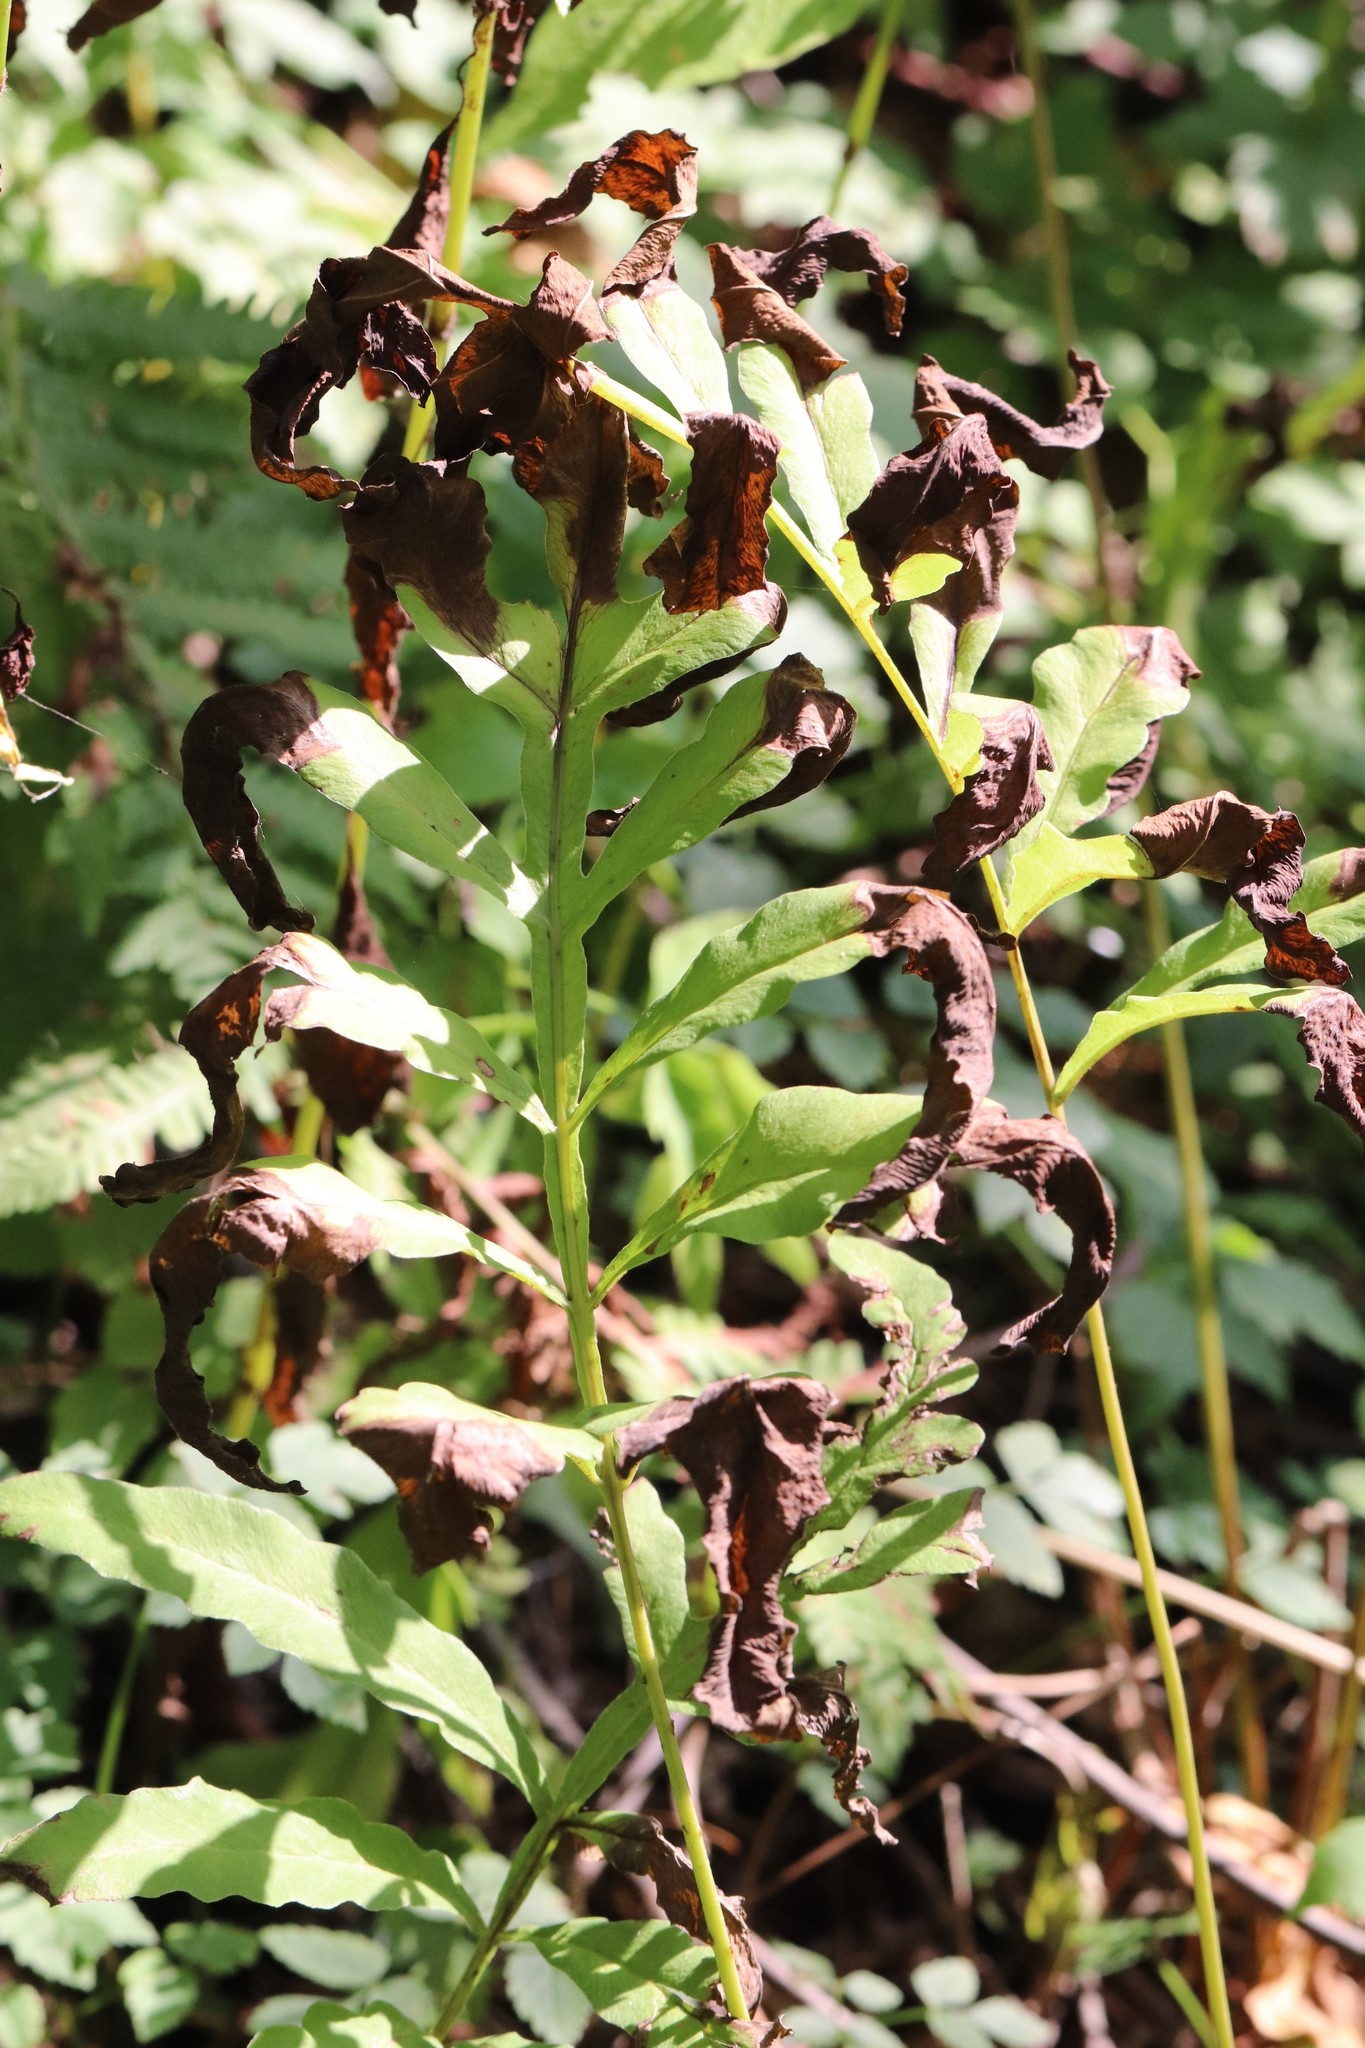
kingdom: Plantae
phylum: Tracheophyta
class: Polypodiopsida
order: Polypodiales
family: Onocleaceae
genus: Onoclea
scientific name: Onoclea sensibilis
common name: Sensitive fern
